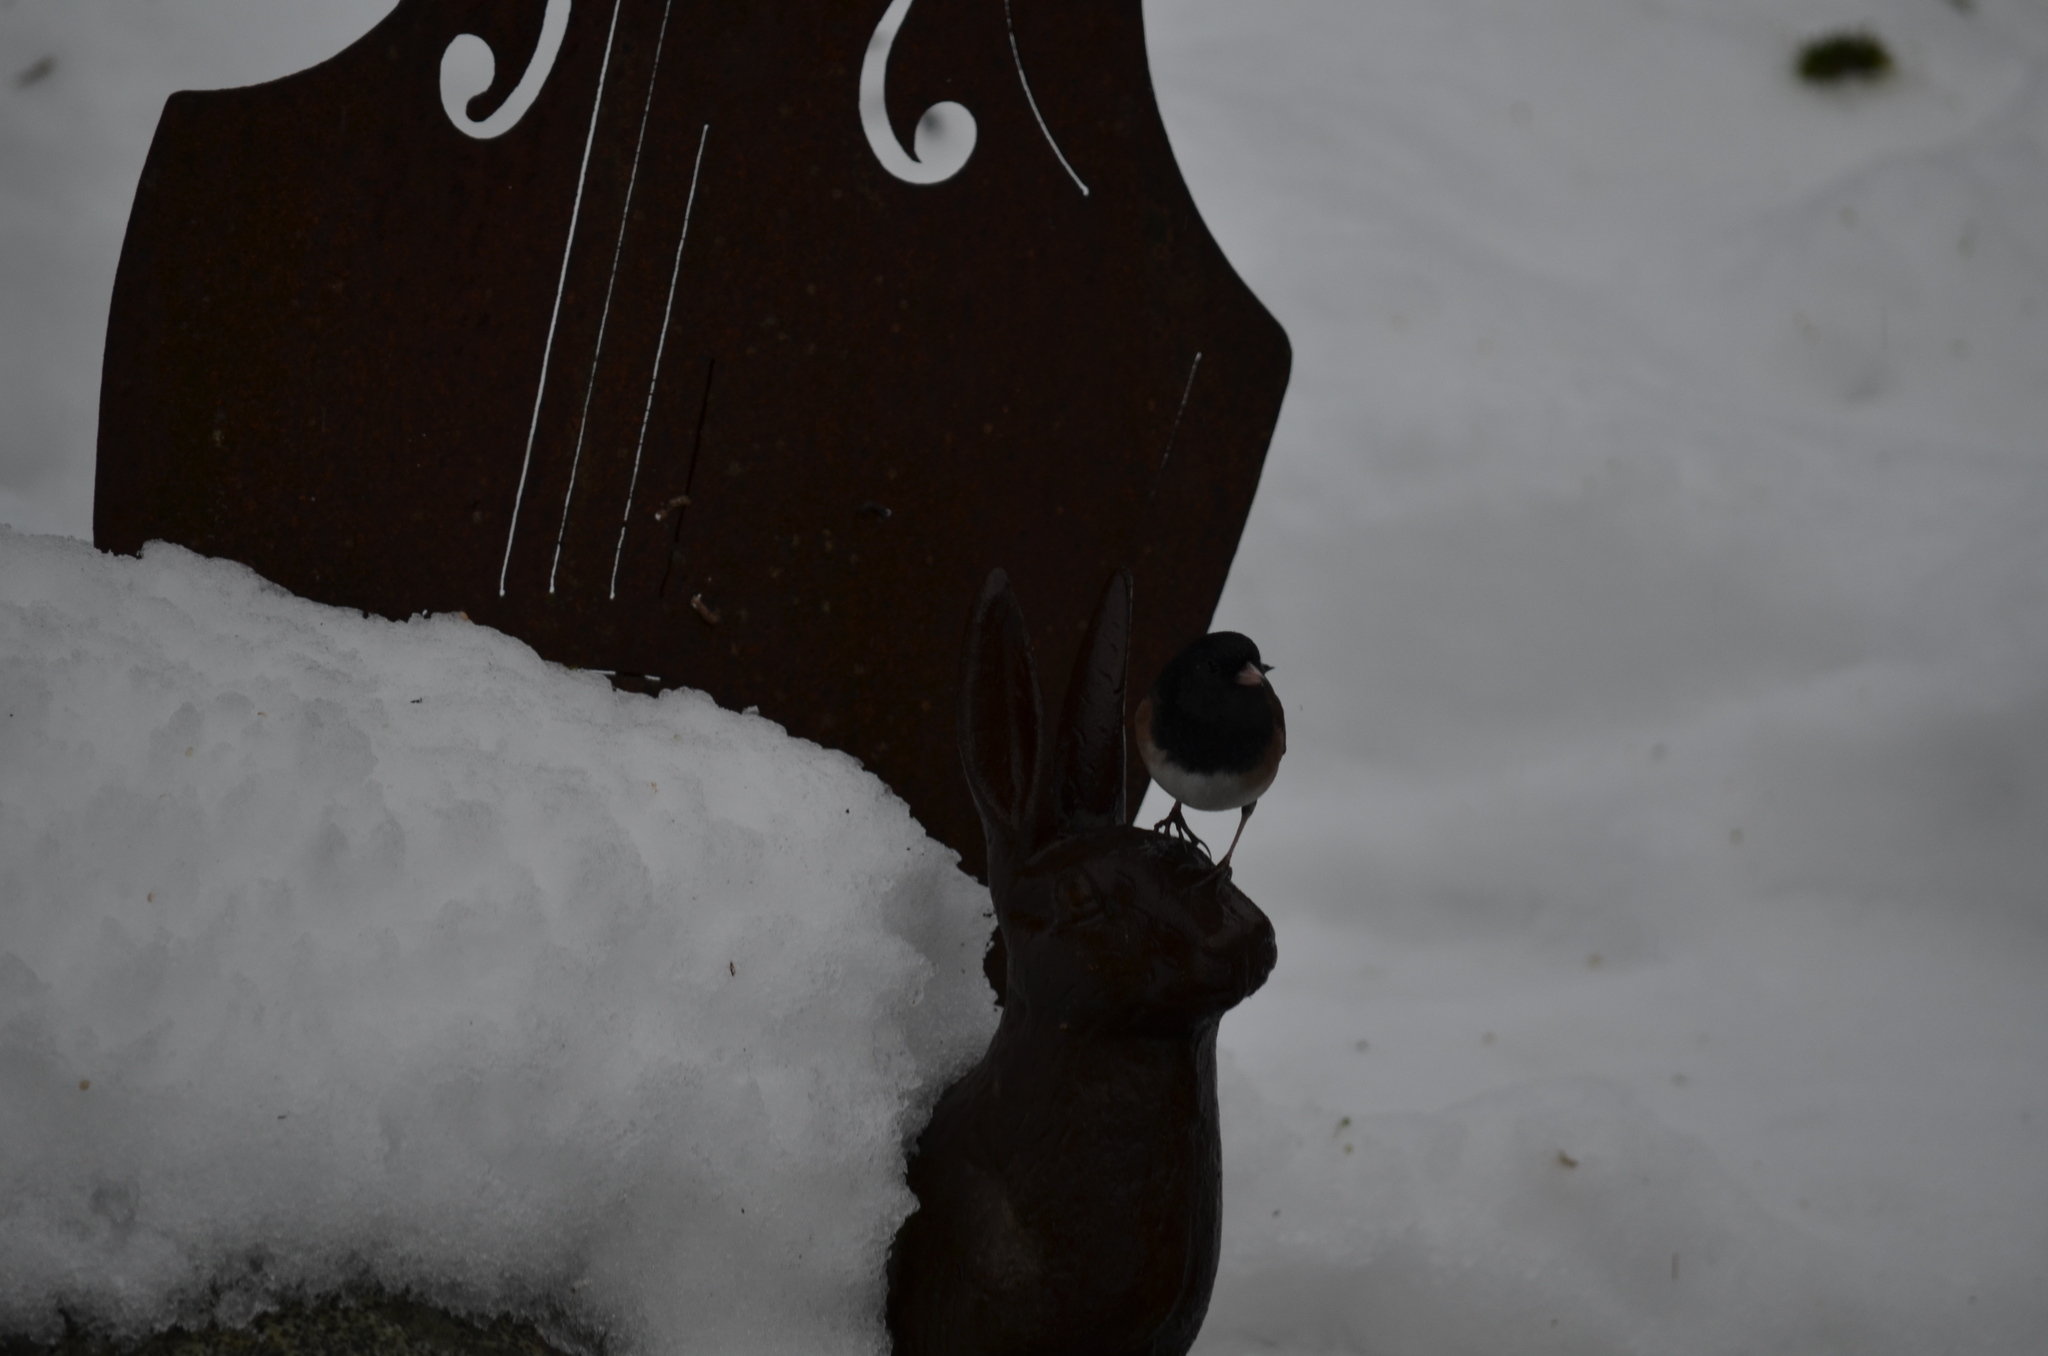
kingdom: Animalia
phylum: Chordata
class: Aves
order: Passeriformes
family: Passerellidae
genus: Junco
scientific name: Junco hyemalis
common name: Dark-eyed junco
